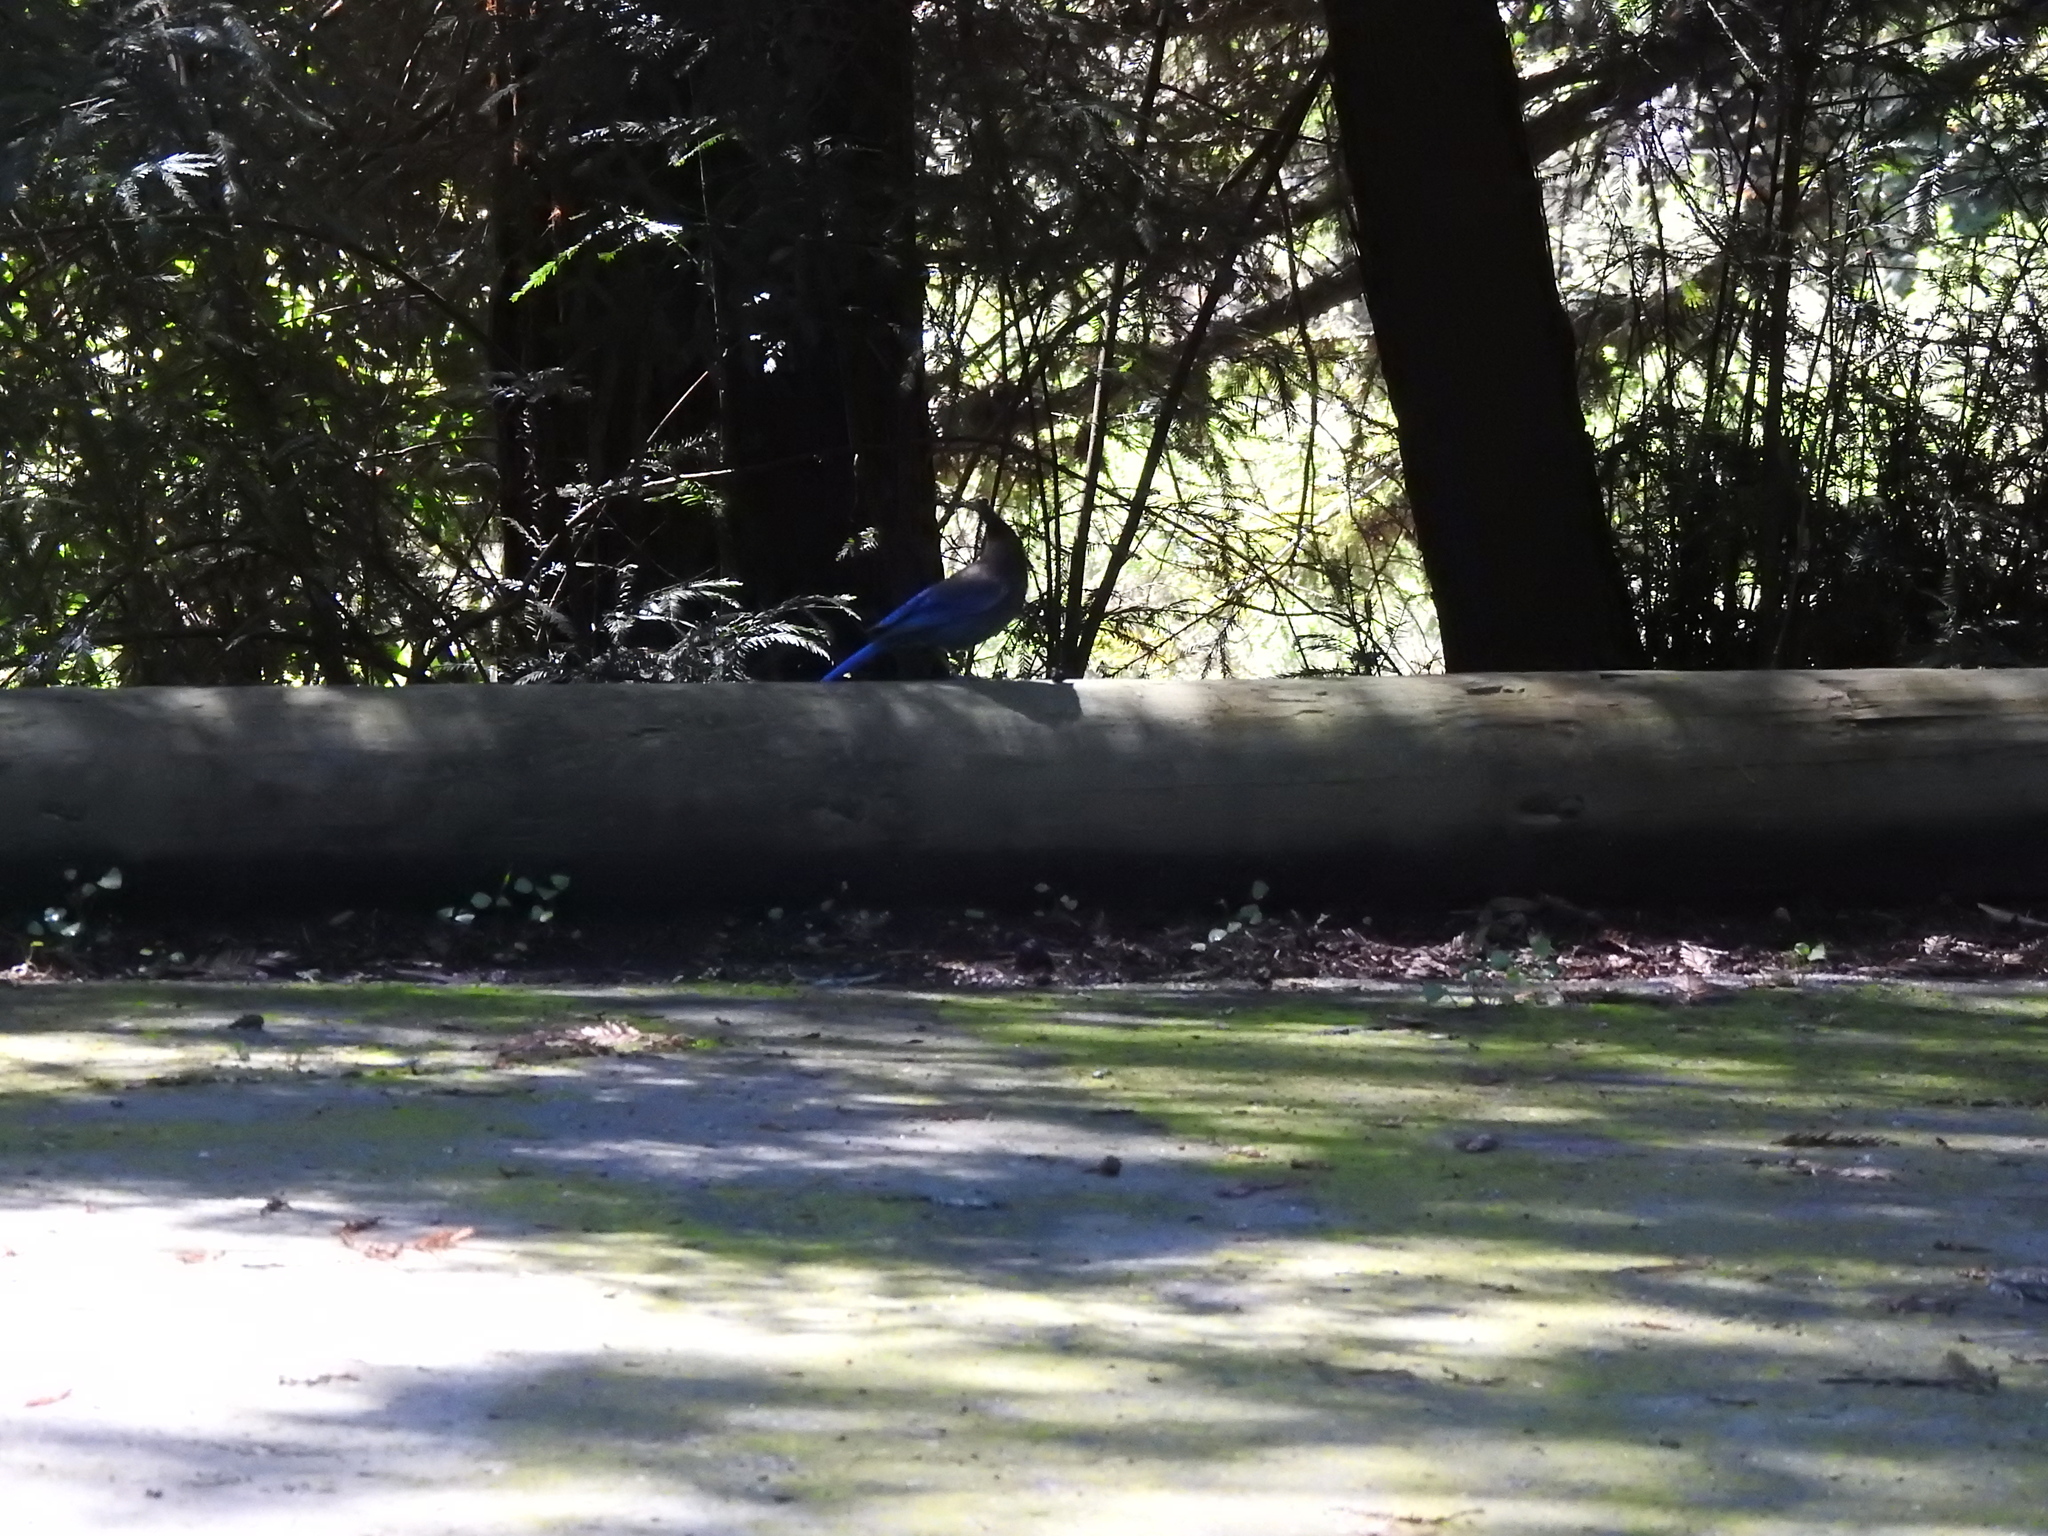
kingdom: Animalia
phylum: Chordata
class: Aves
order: Passeriformes
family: Corvidae
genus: Cyanocitta
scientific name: Cyanocitta stelleri
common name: Steller's jay
